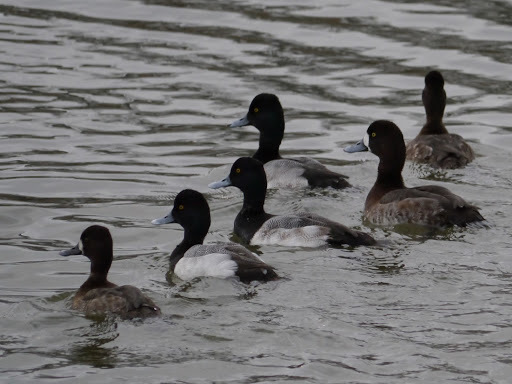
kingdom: Animalia
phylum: Chordata
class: Aves
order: Anseriformes
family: Anatidae
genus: Aythya
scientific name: Aythya affinis
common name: Lesser scaup
